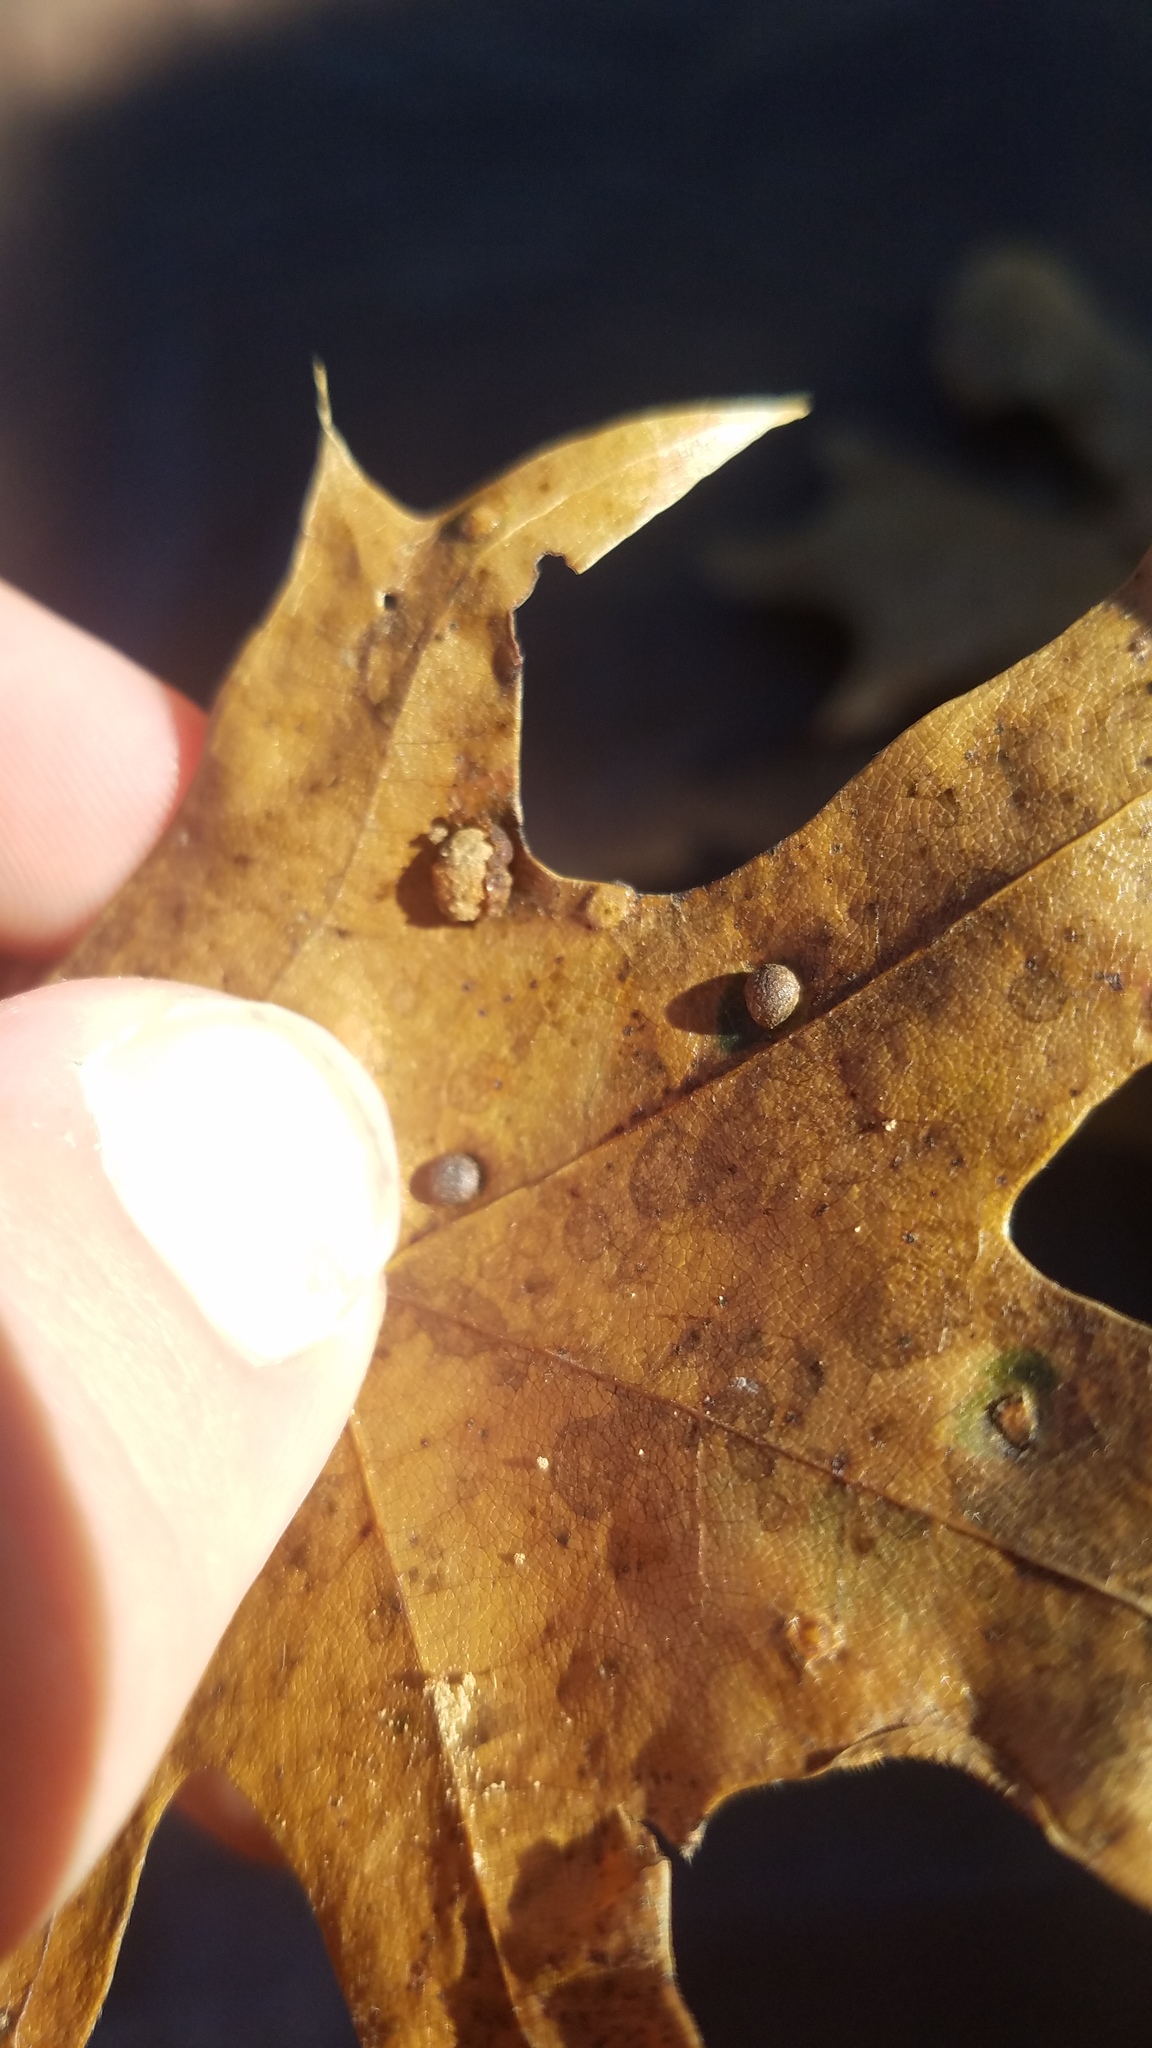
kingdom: Animalia
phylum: Arthropoda
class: Insecta
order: Diptera
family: Cecidomyiidae
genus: Polystepha
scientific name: Polystepha pilulae
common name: Oak leaf gall midge
